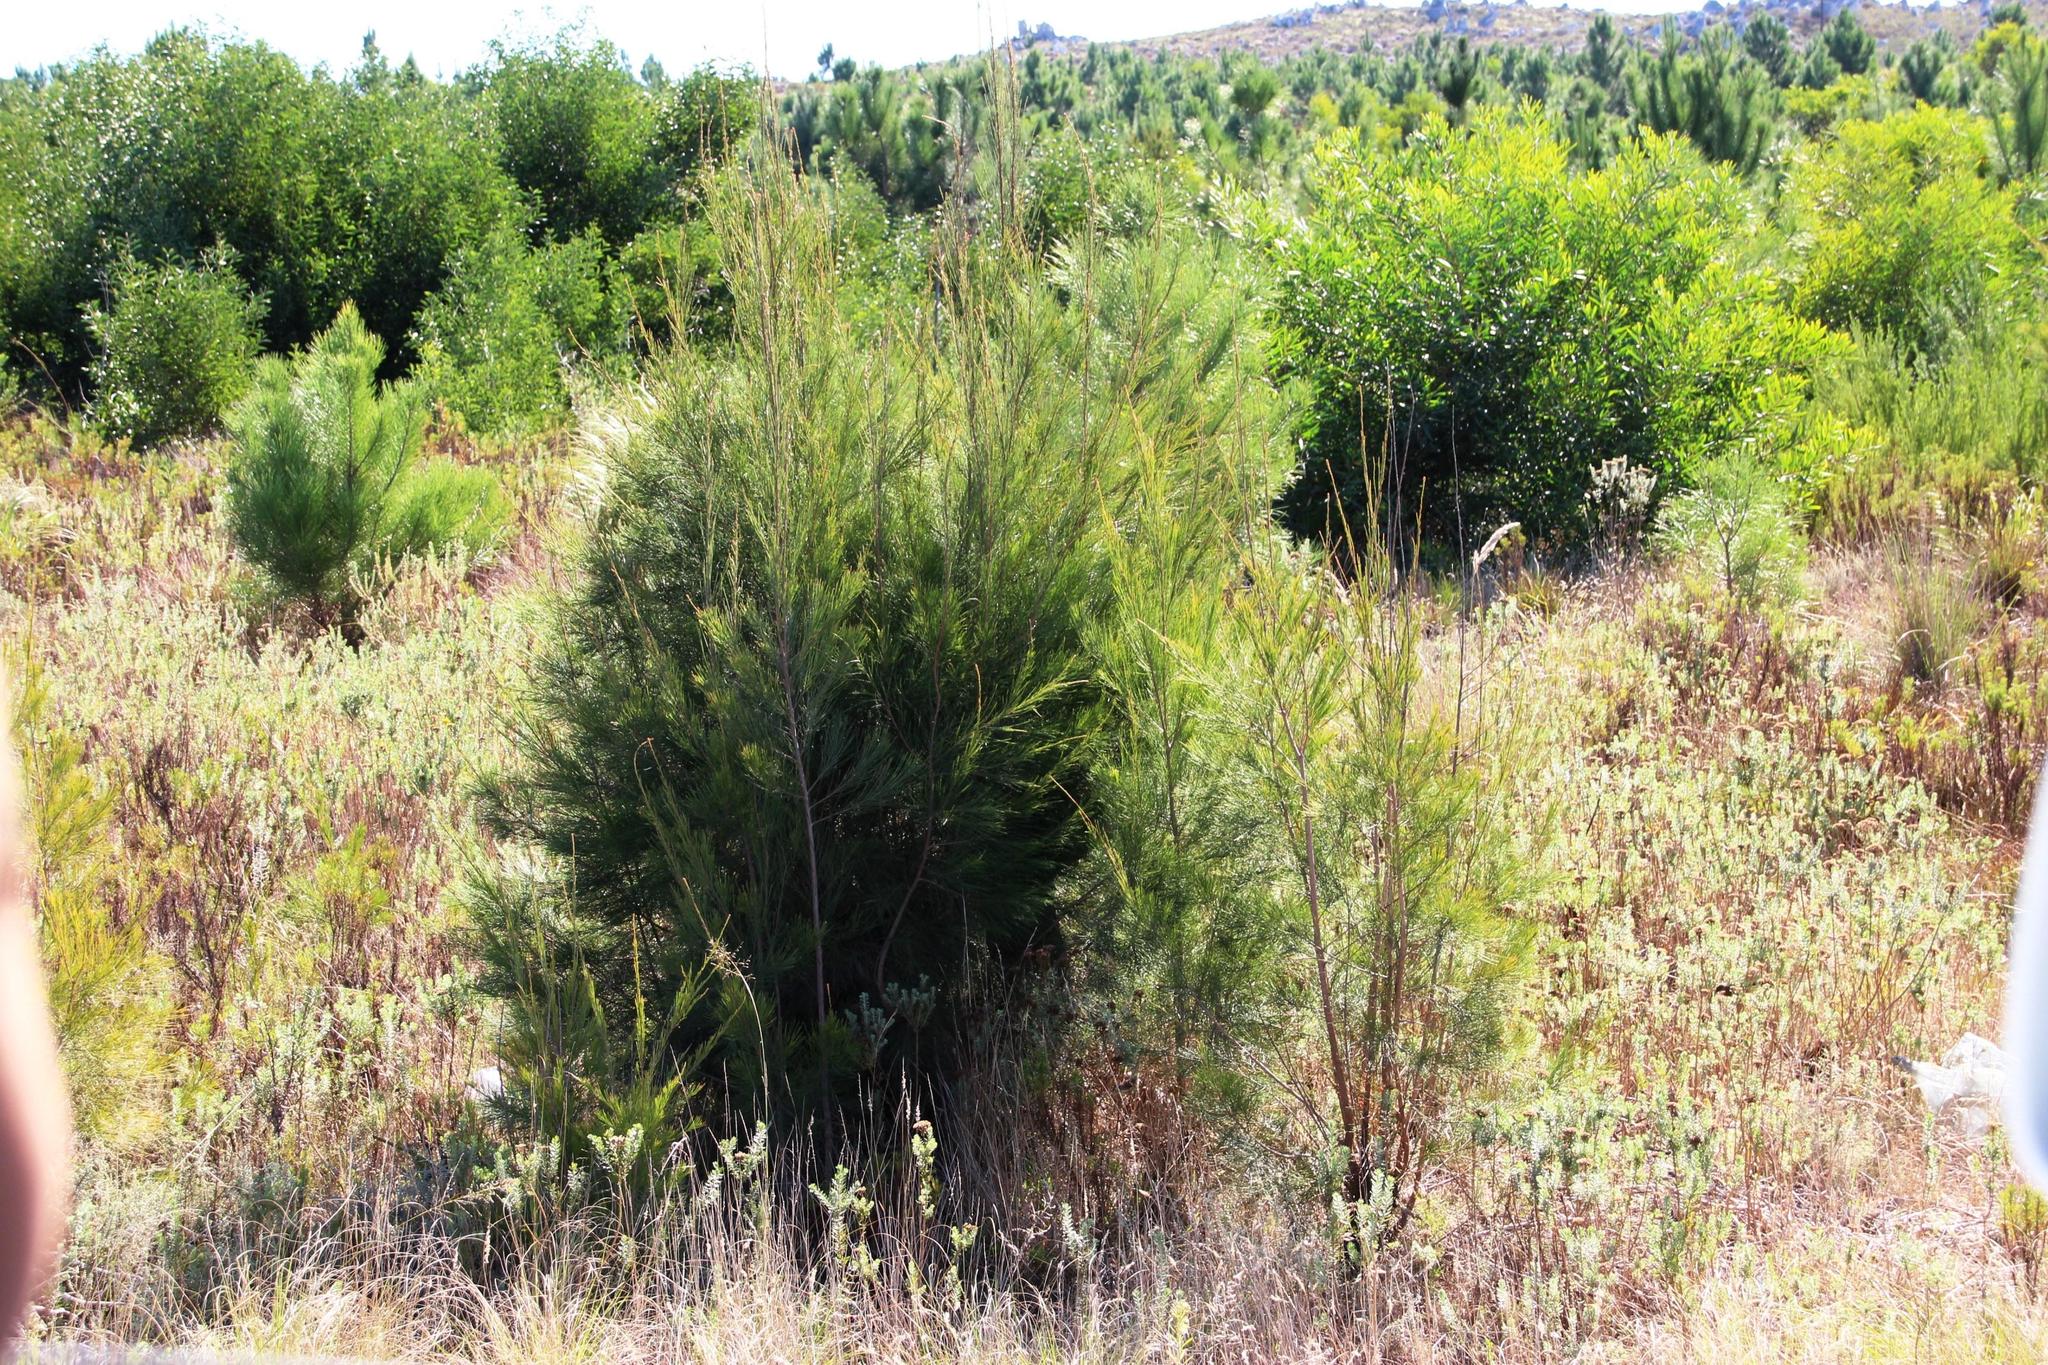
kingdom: Plantae
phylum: Tracheophyta
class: Magnoliopsida
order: Fagales
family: Casuarinaceae
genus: Casuarina
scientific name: Casuarina cunninghamiana
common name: River sheoak
